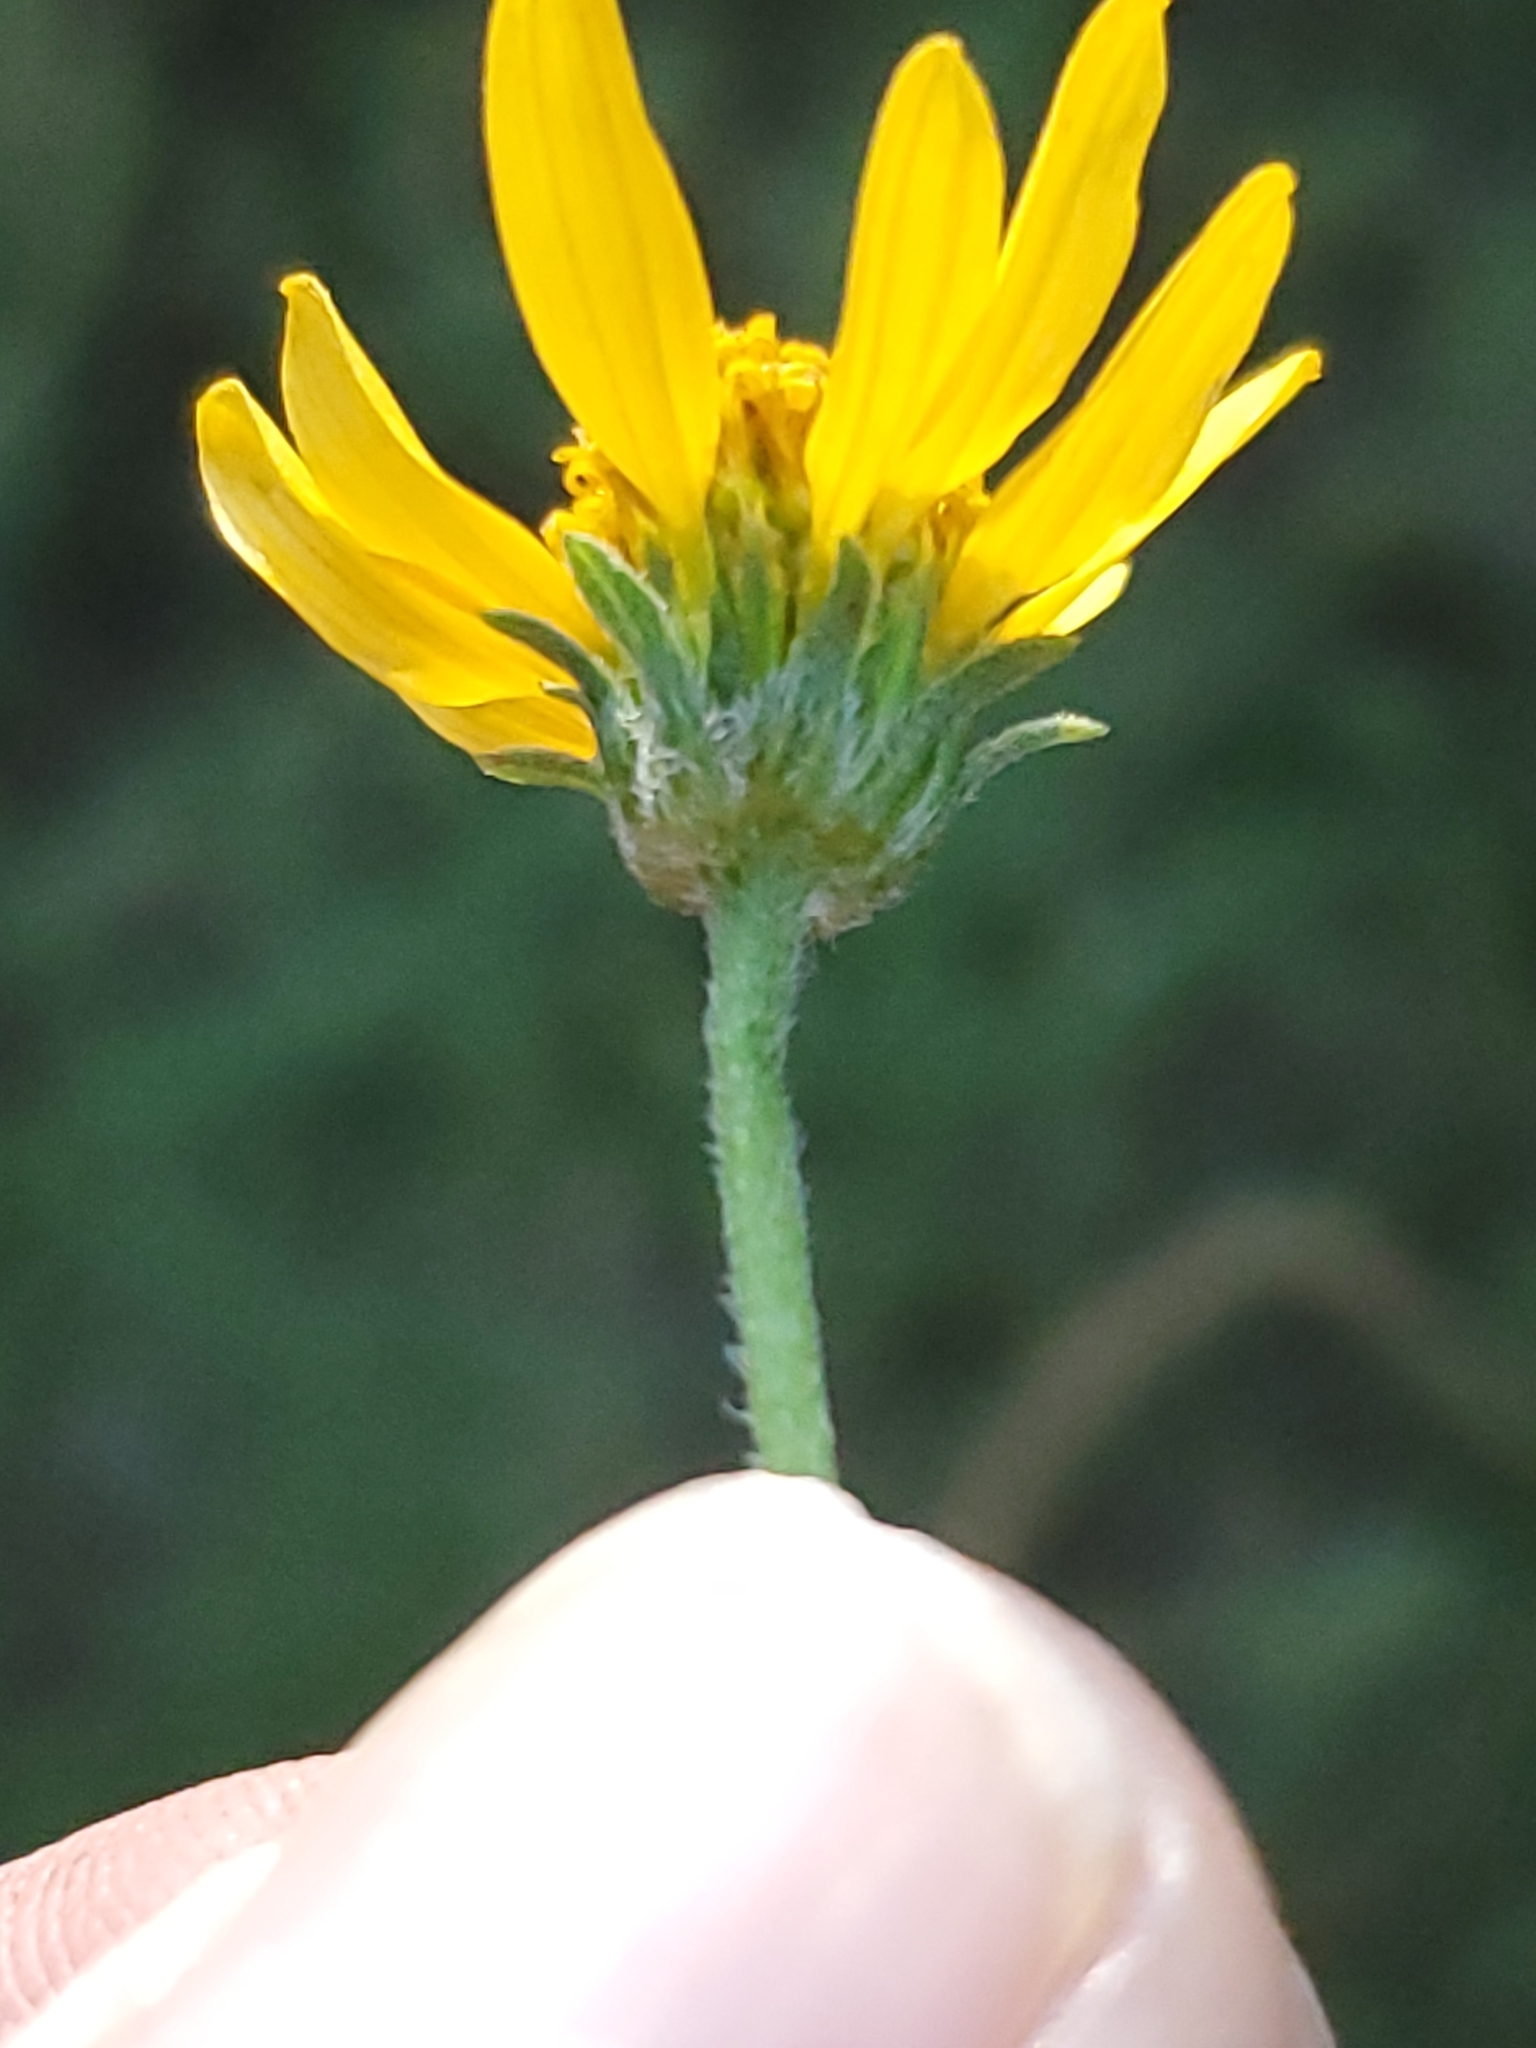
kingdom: Plantae
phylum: Tracheophyta
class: Magnoliopsida
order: Asterales
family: Asteraceae
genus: Viguiera
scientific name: Viguiera dentata
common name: Toothleaf
